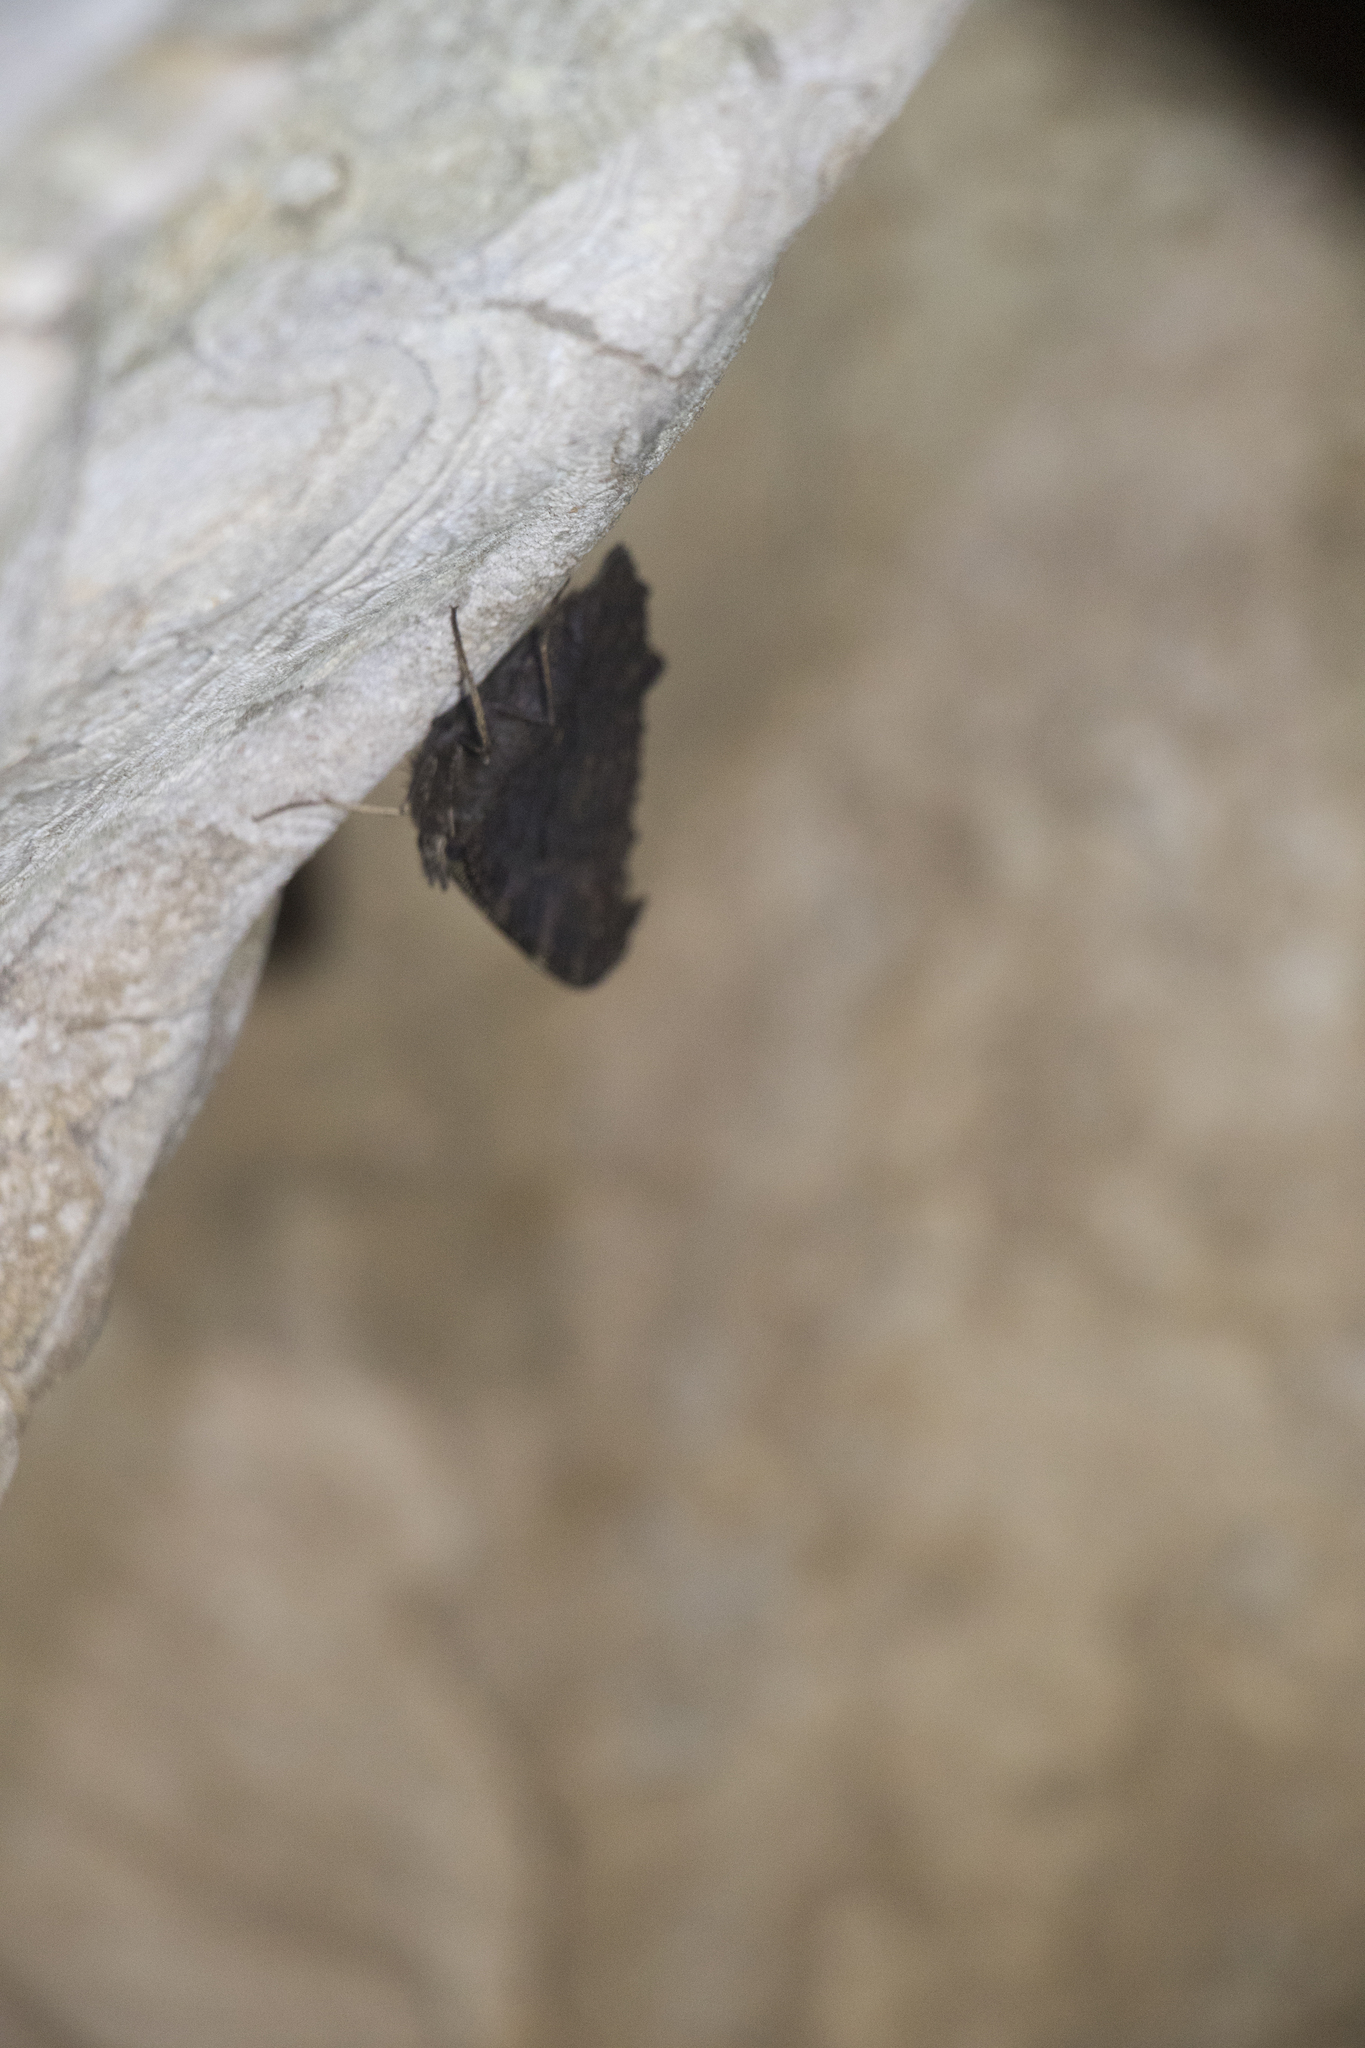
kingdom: Animalia
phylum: Arthropoda
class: Insecta
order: Lepidoptera
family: Nymphalidae
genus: Aglais
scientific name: Aglais io
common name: Peacock
